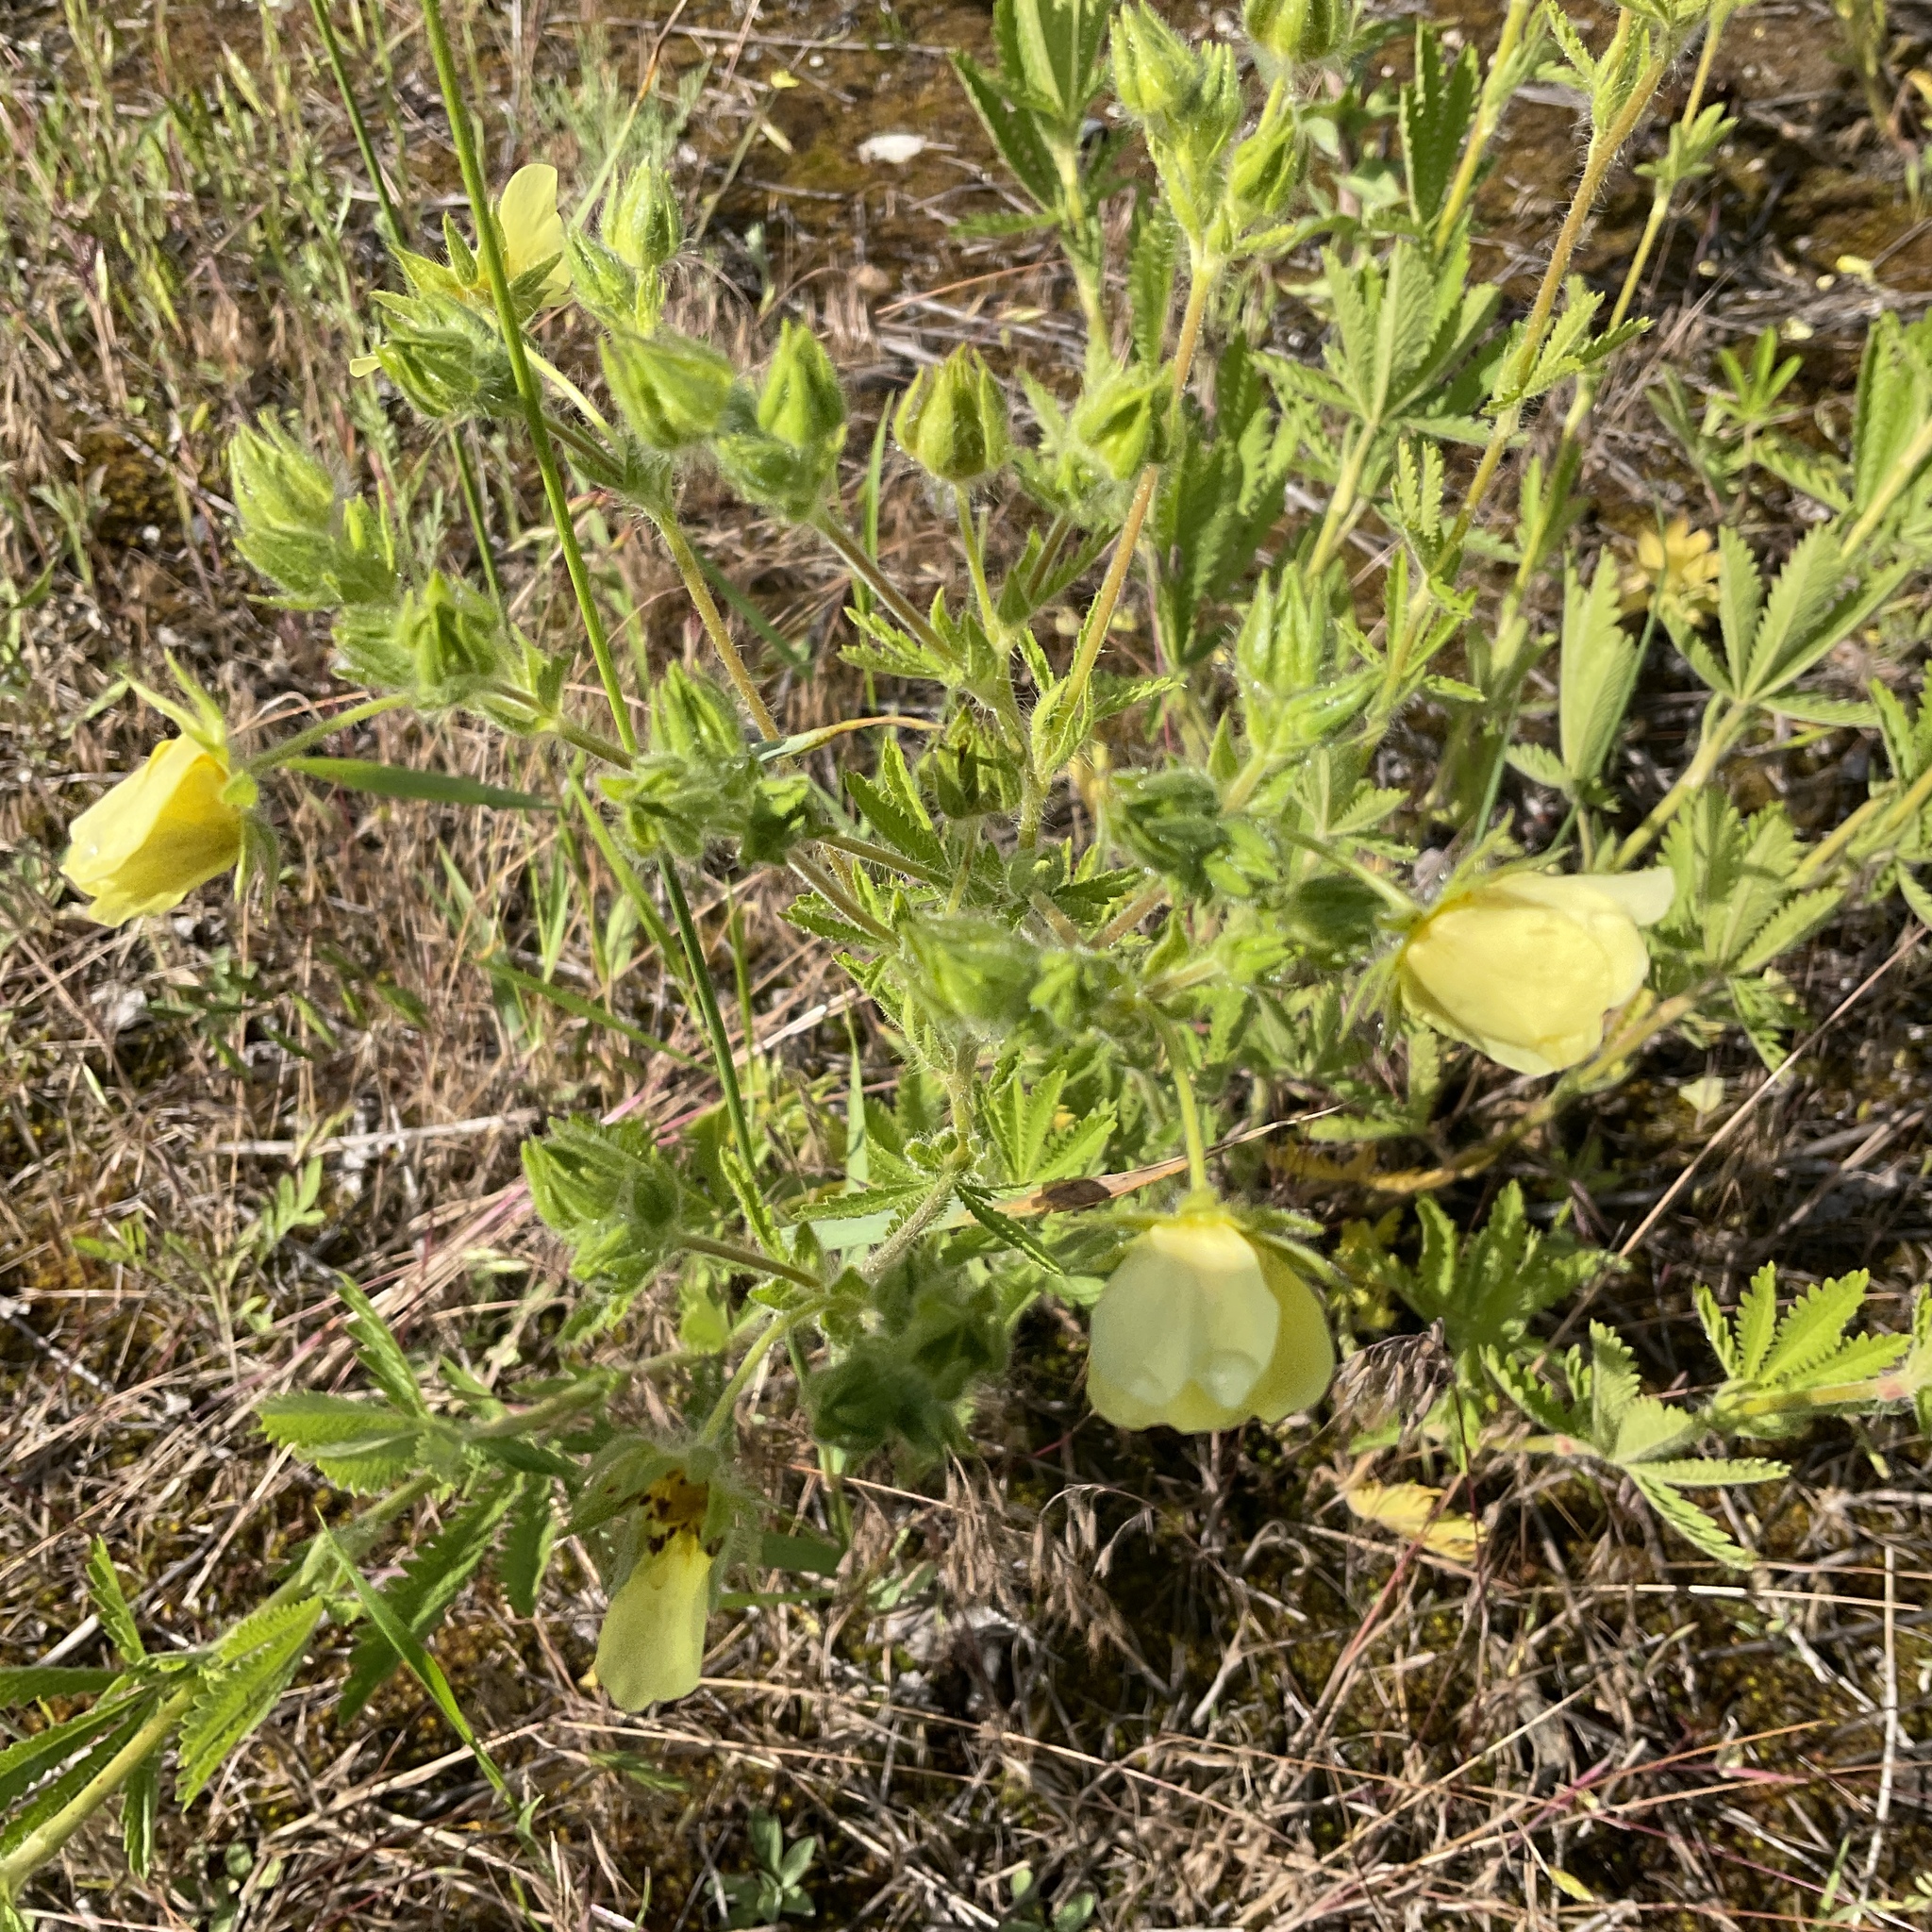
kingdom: Plantae
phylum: Tracheophyta
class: Magnoliopsida
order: Rosales
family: Rosaceae
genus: Potentilla
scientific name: Potentilla recta
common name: Sulphur cinquefoil
